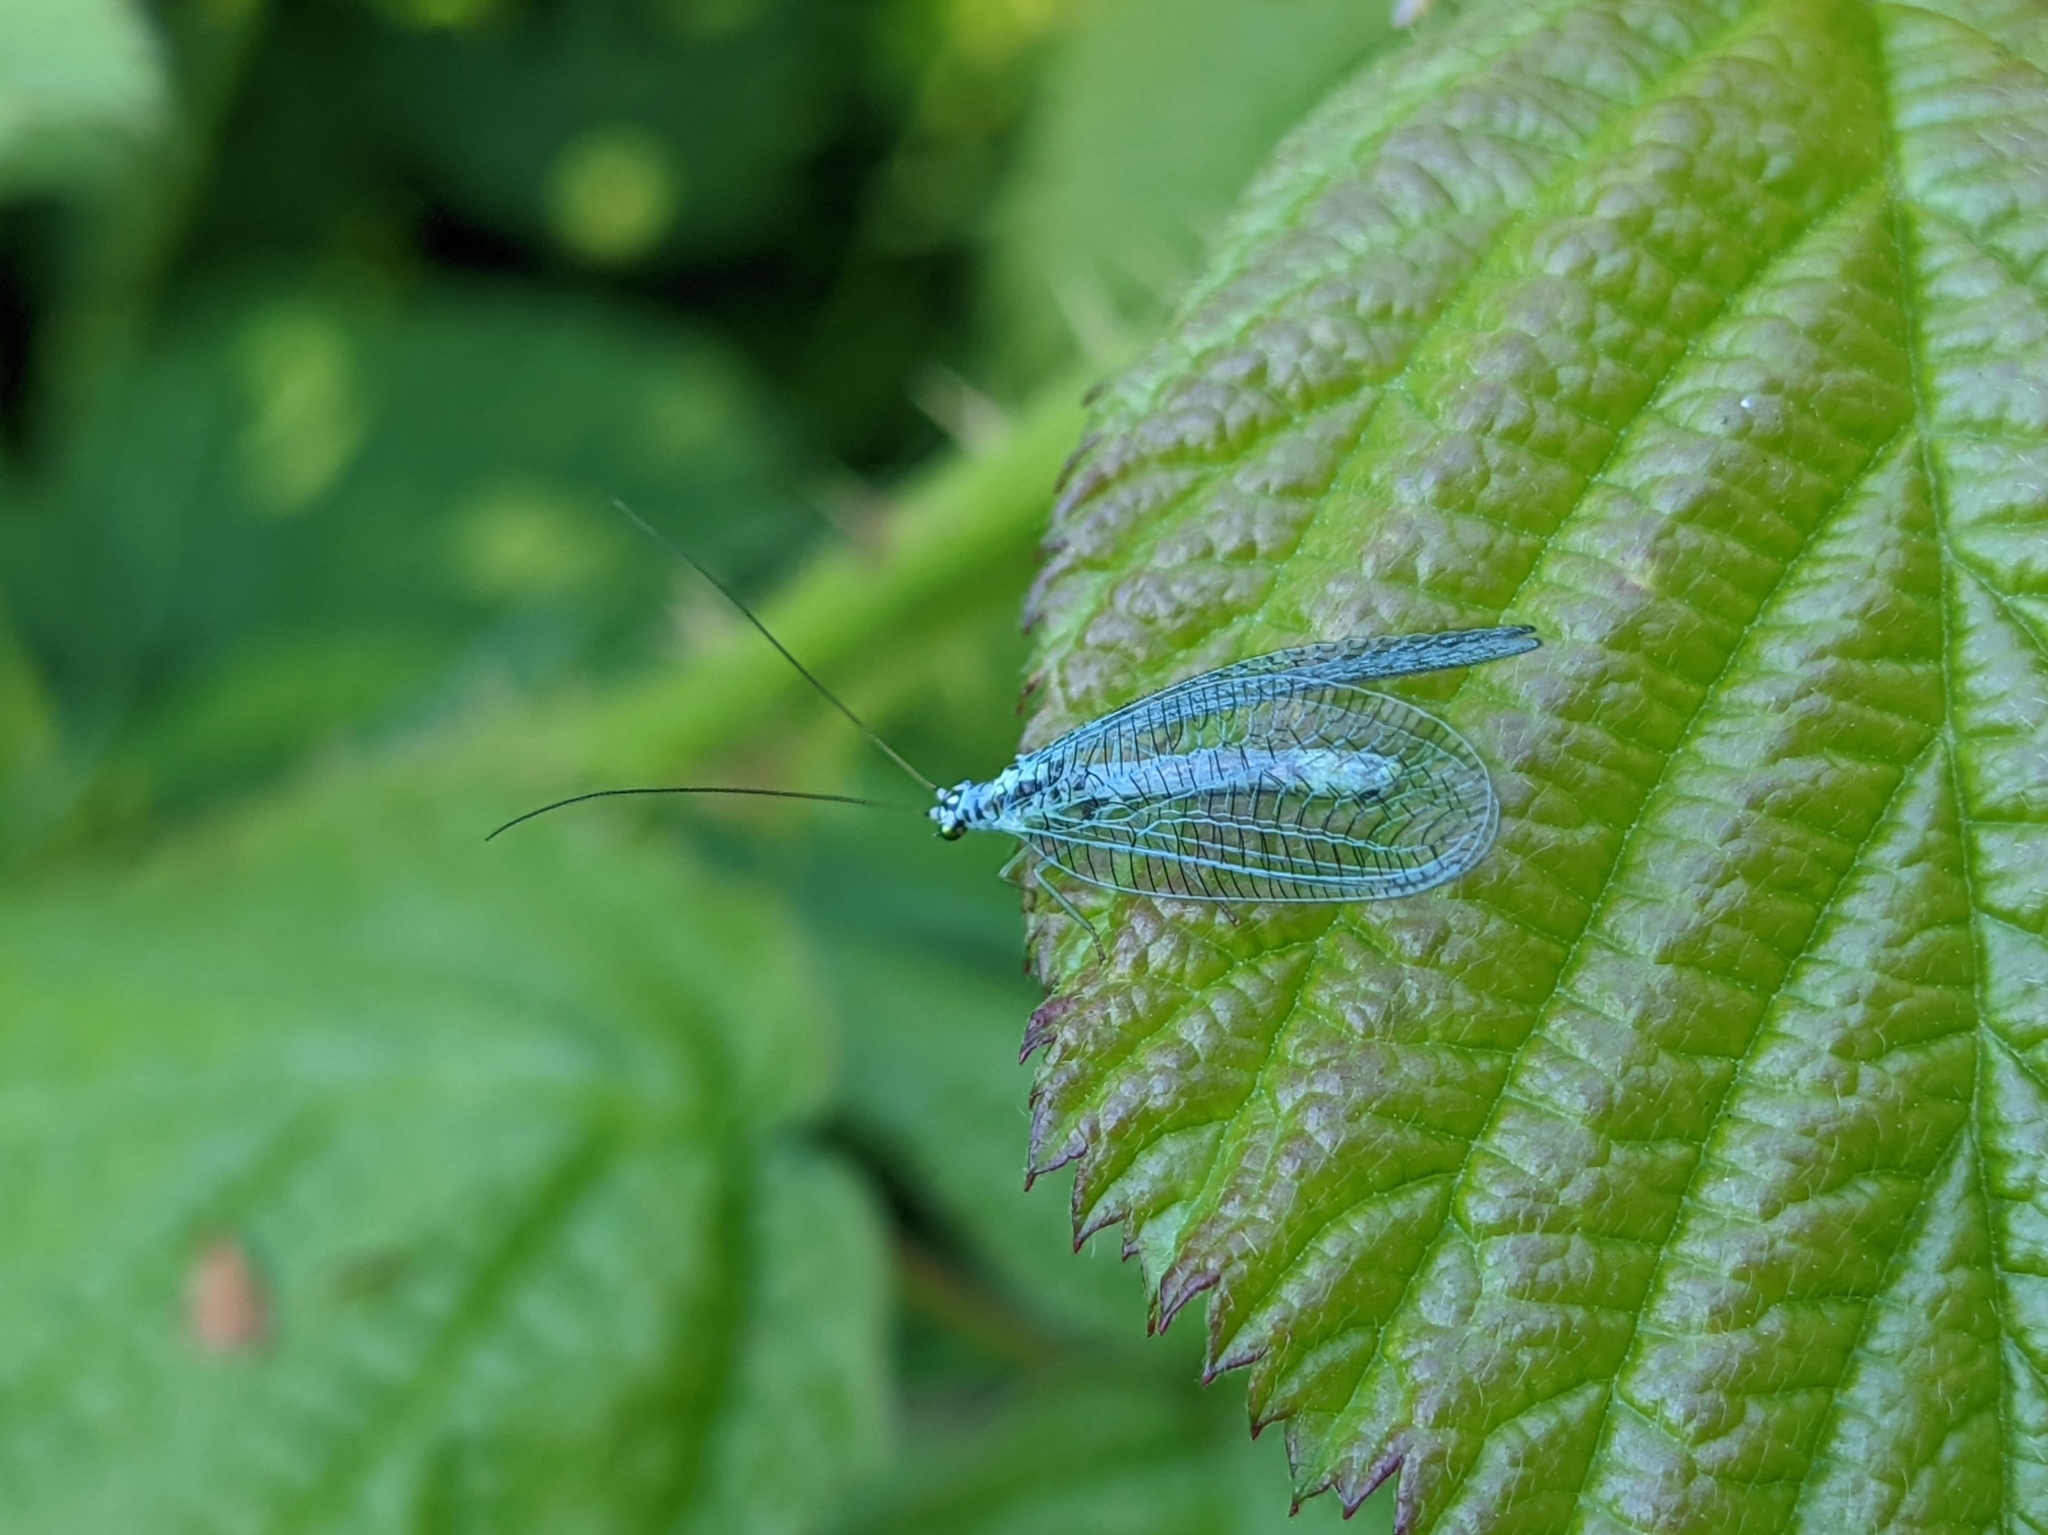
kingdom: Animalia
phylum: Arthropoda
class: Insecta
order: Neuroptera
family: Chrysopidae
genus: Chrysopa
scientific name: Chrysopa perla
